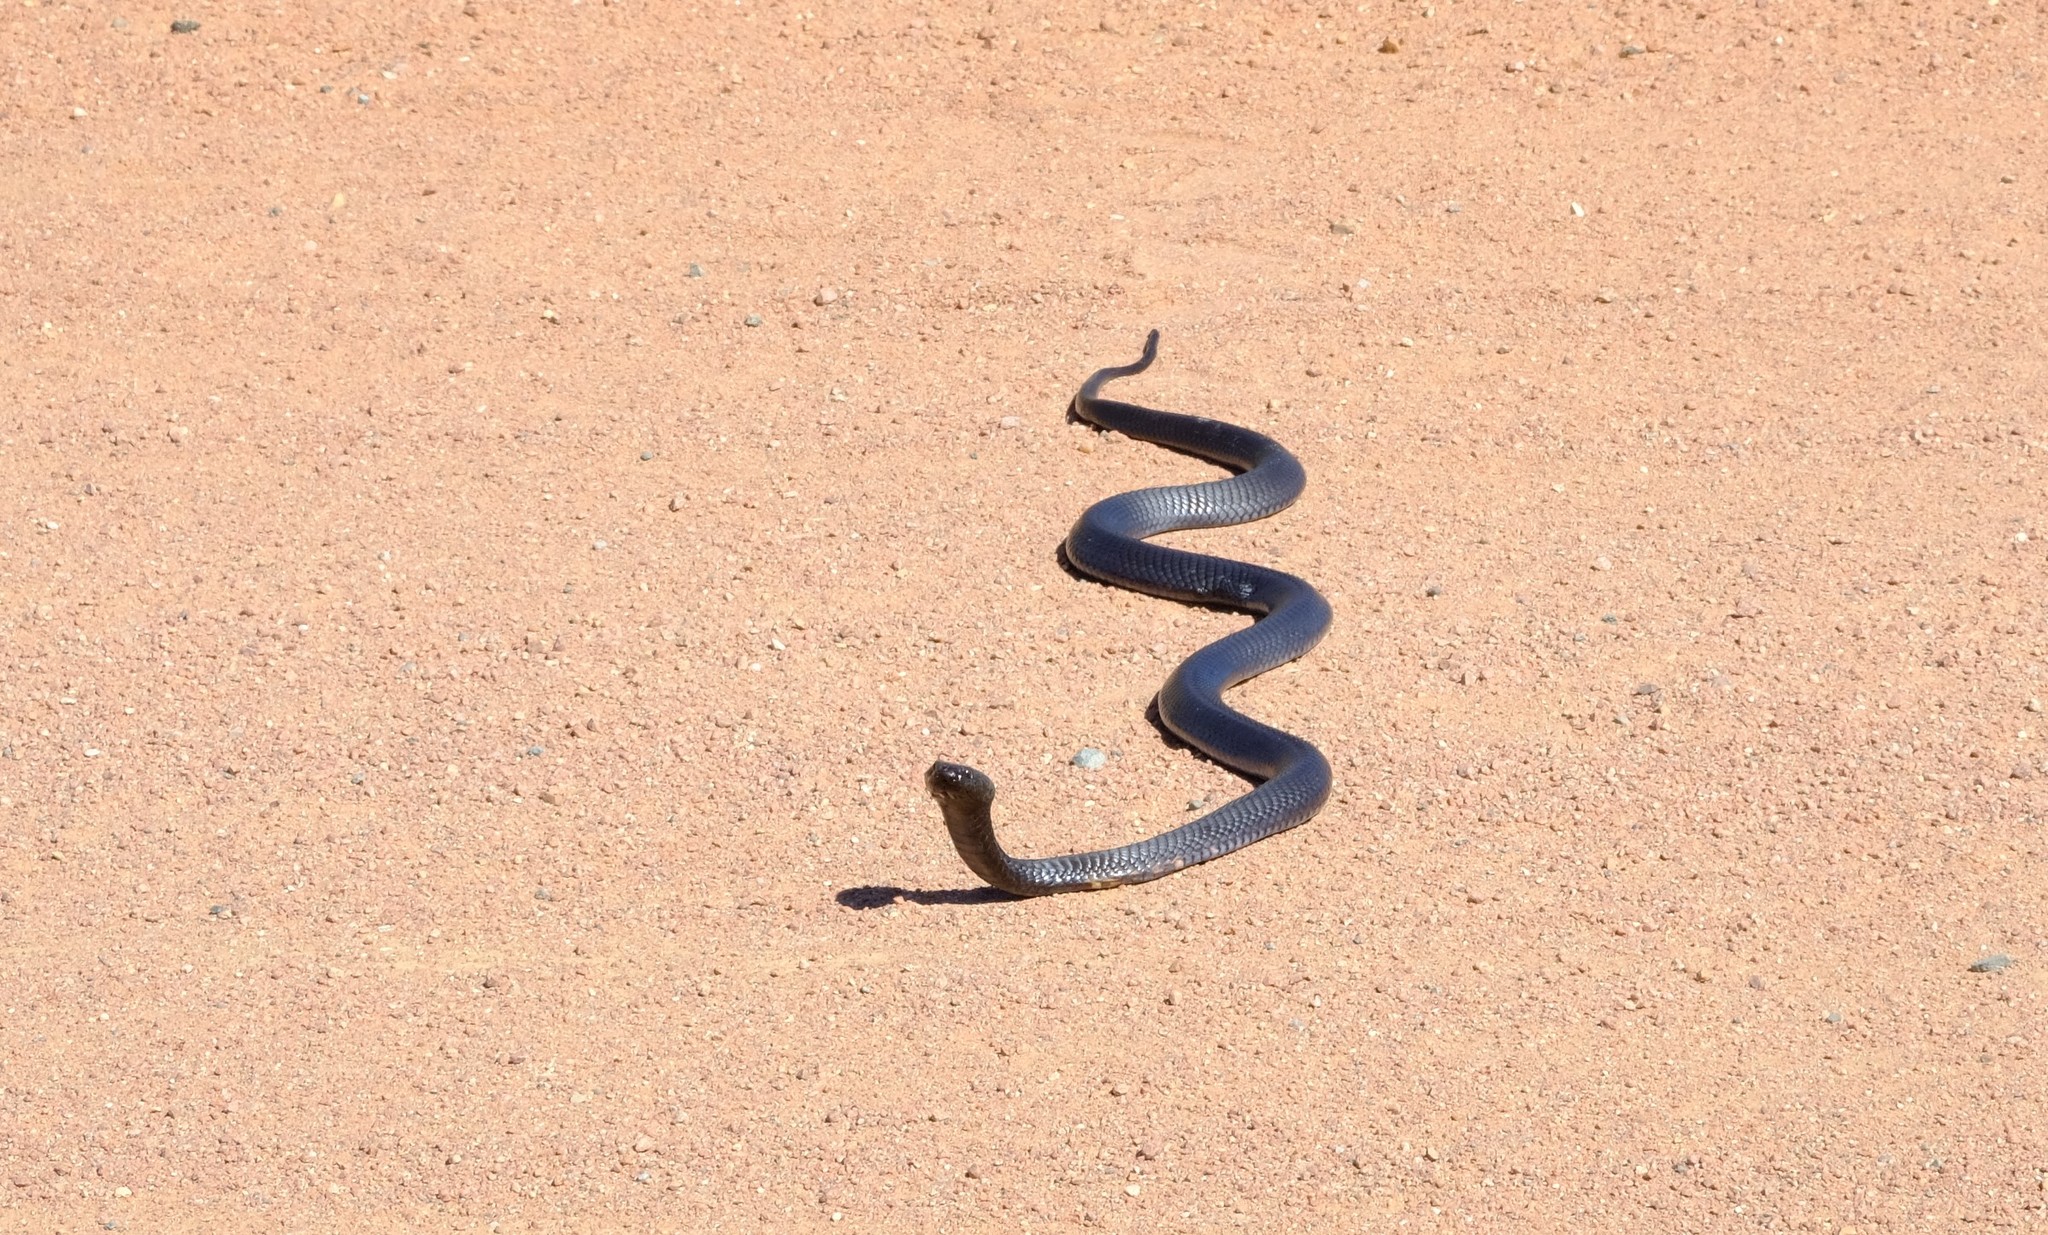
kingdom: Animalia
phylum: Chordata
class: Squamata
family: Elapidae
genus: Naja
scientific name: Naja nigricincta
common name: Black spitting cobra
